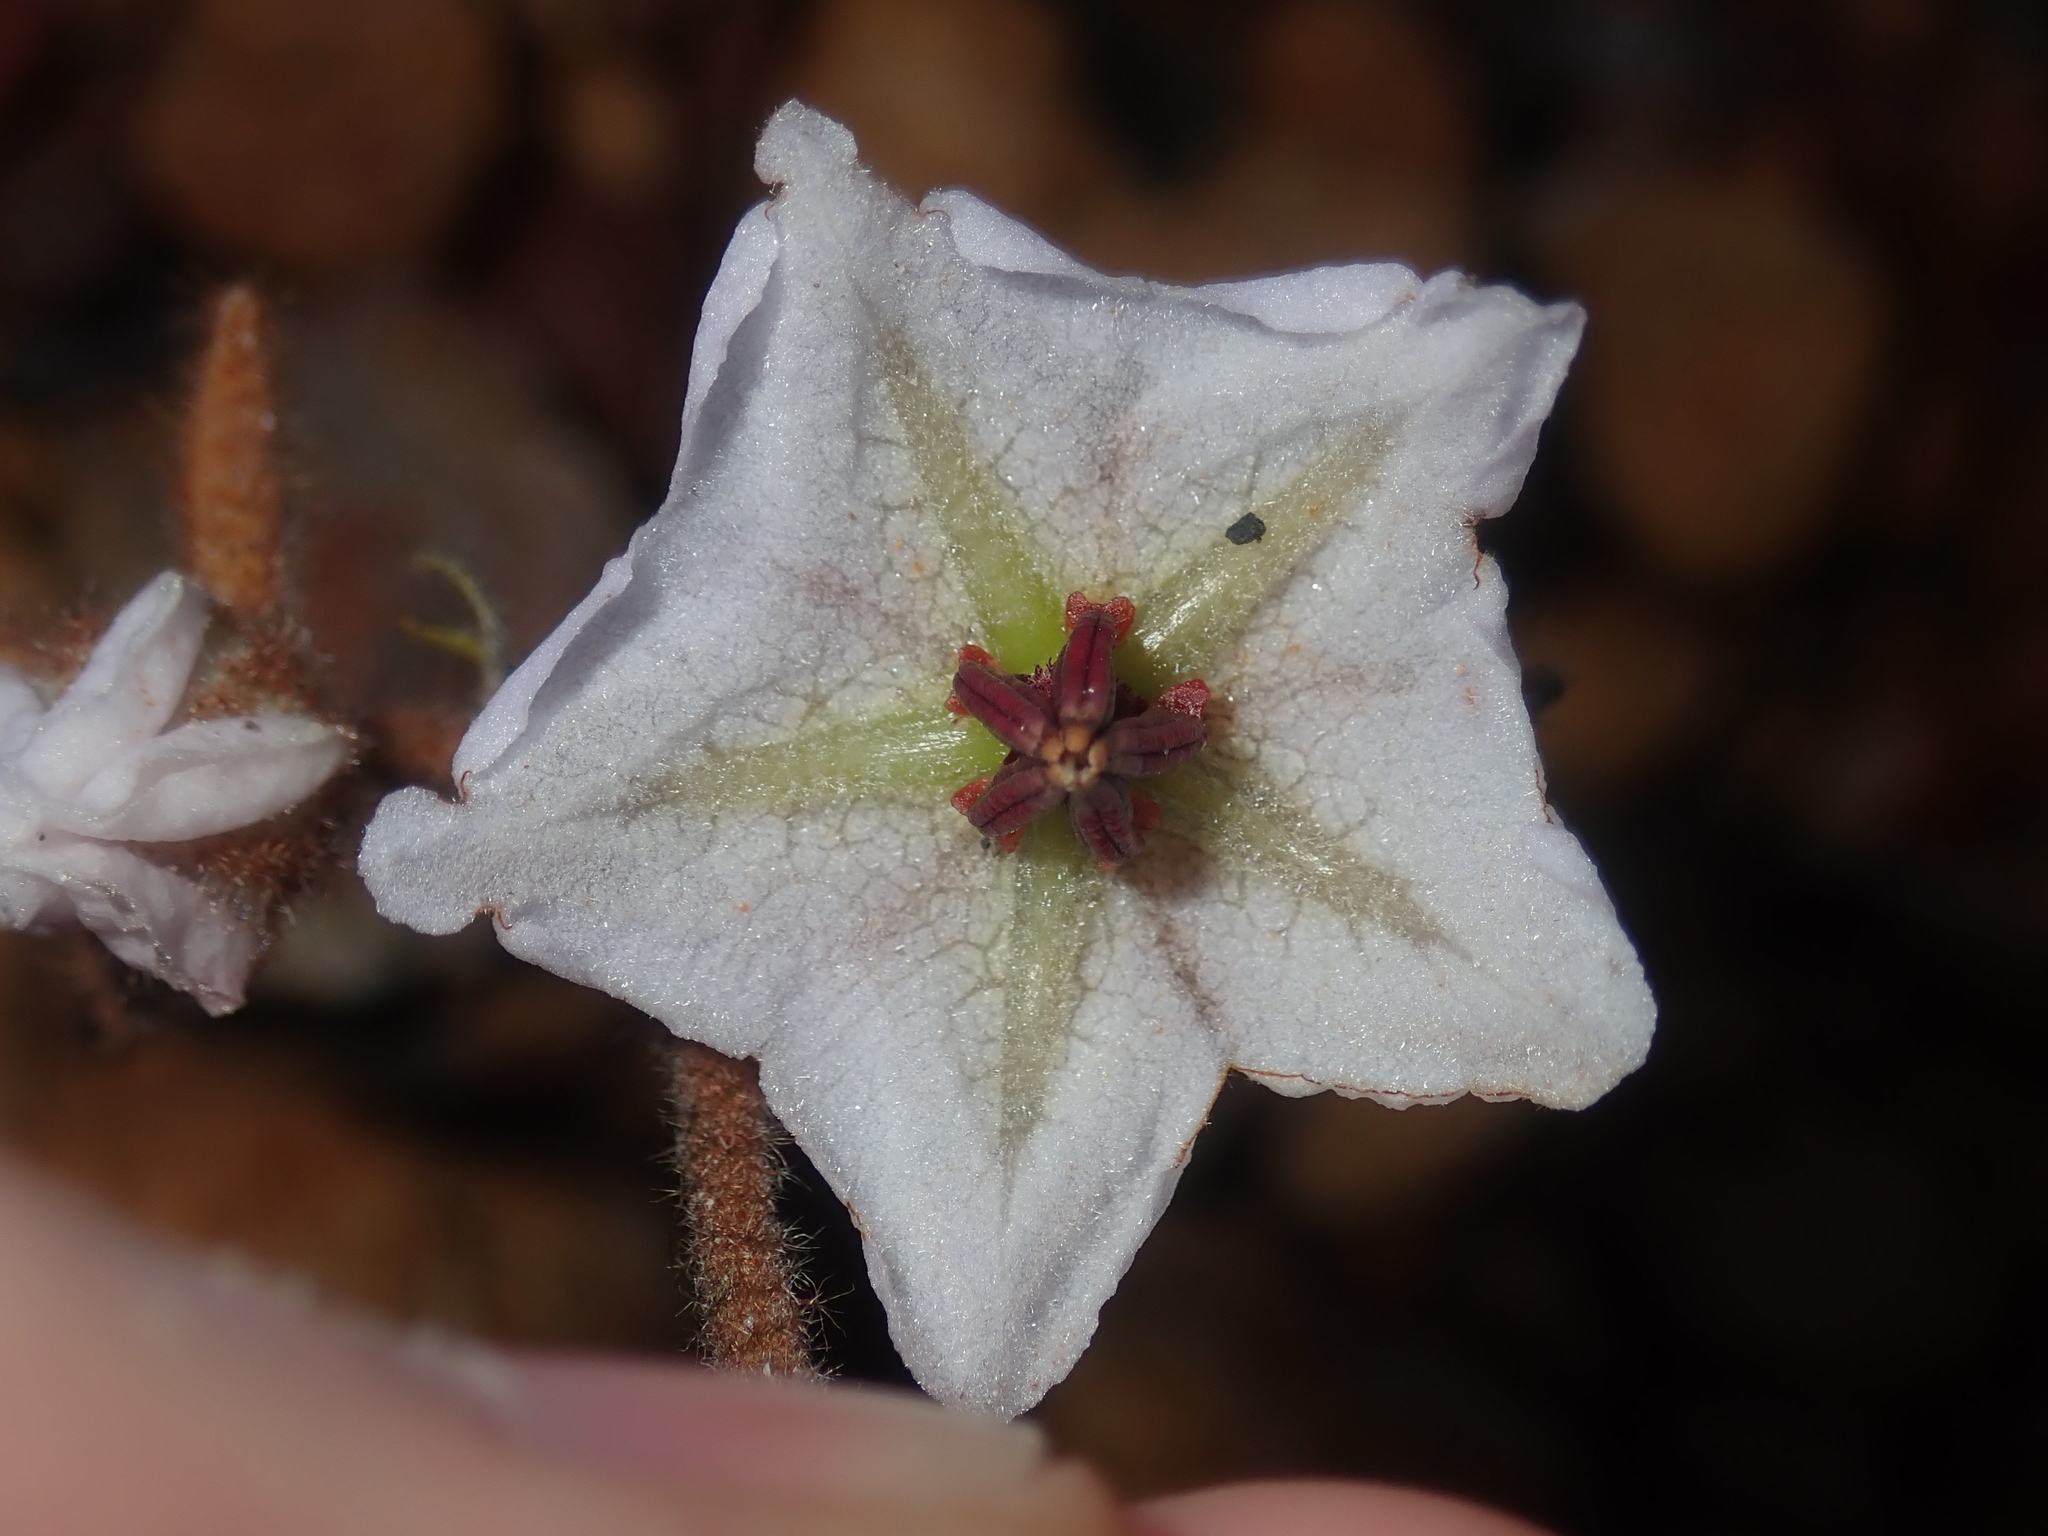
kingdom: Plantae
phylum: Tracheophyta
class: Magnoliopsida
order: Malvales
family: Malvaceae
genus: Thomasia
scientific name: Thomasia grandiflora
